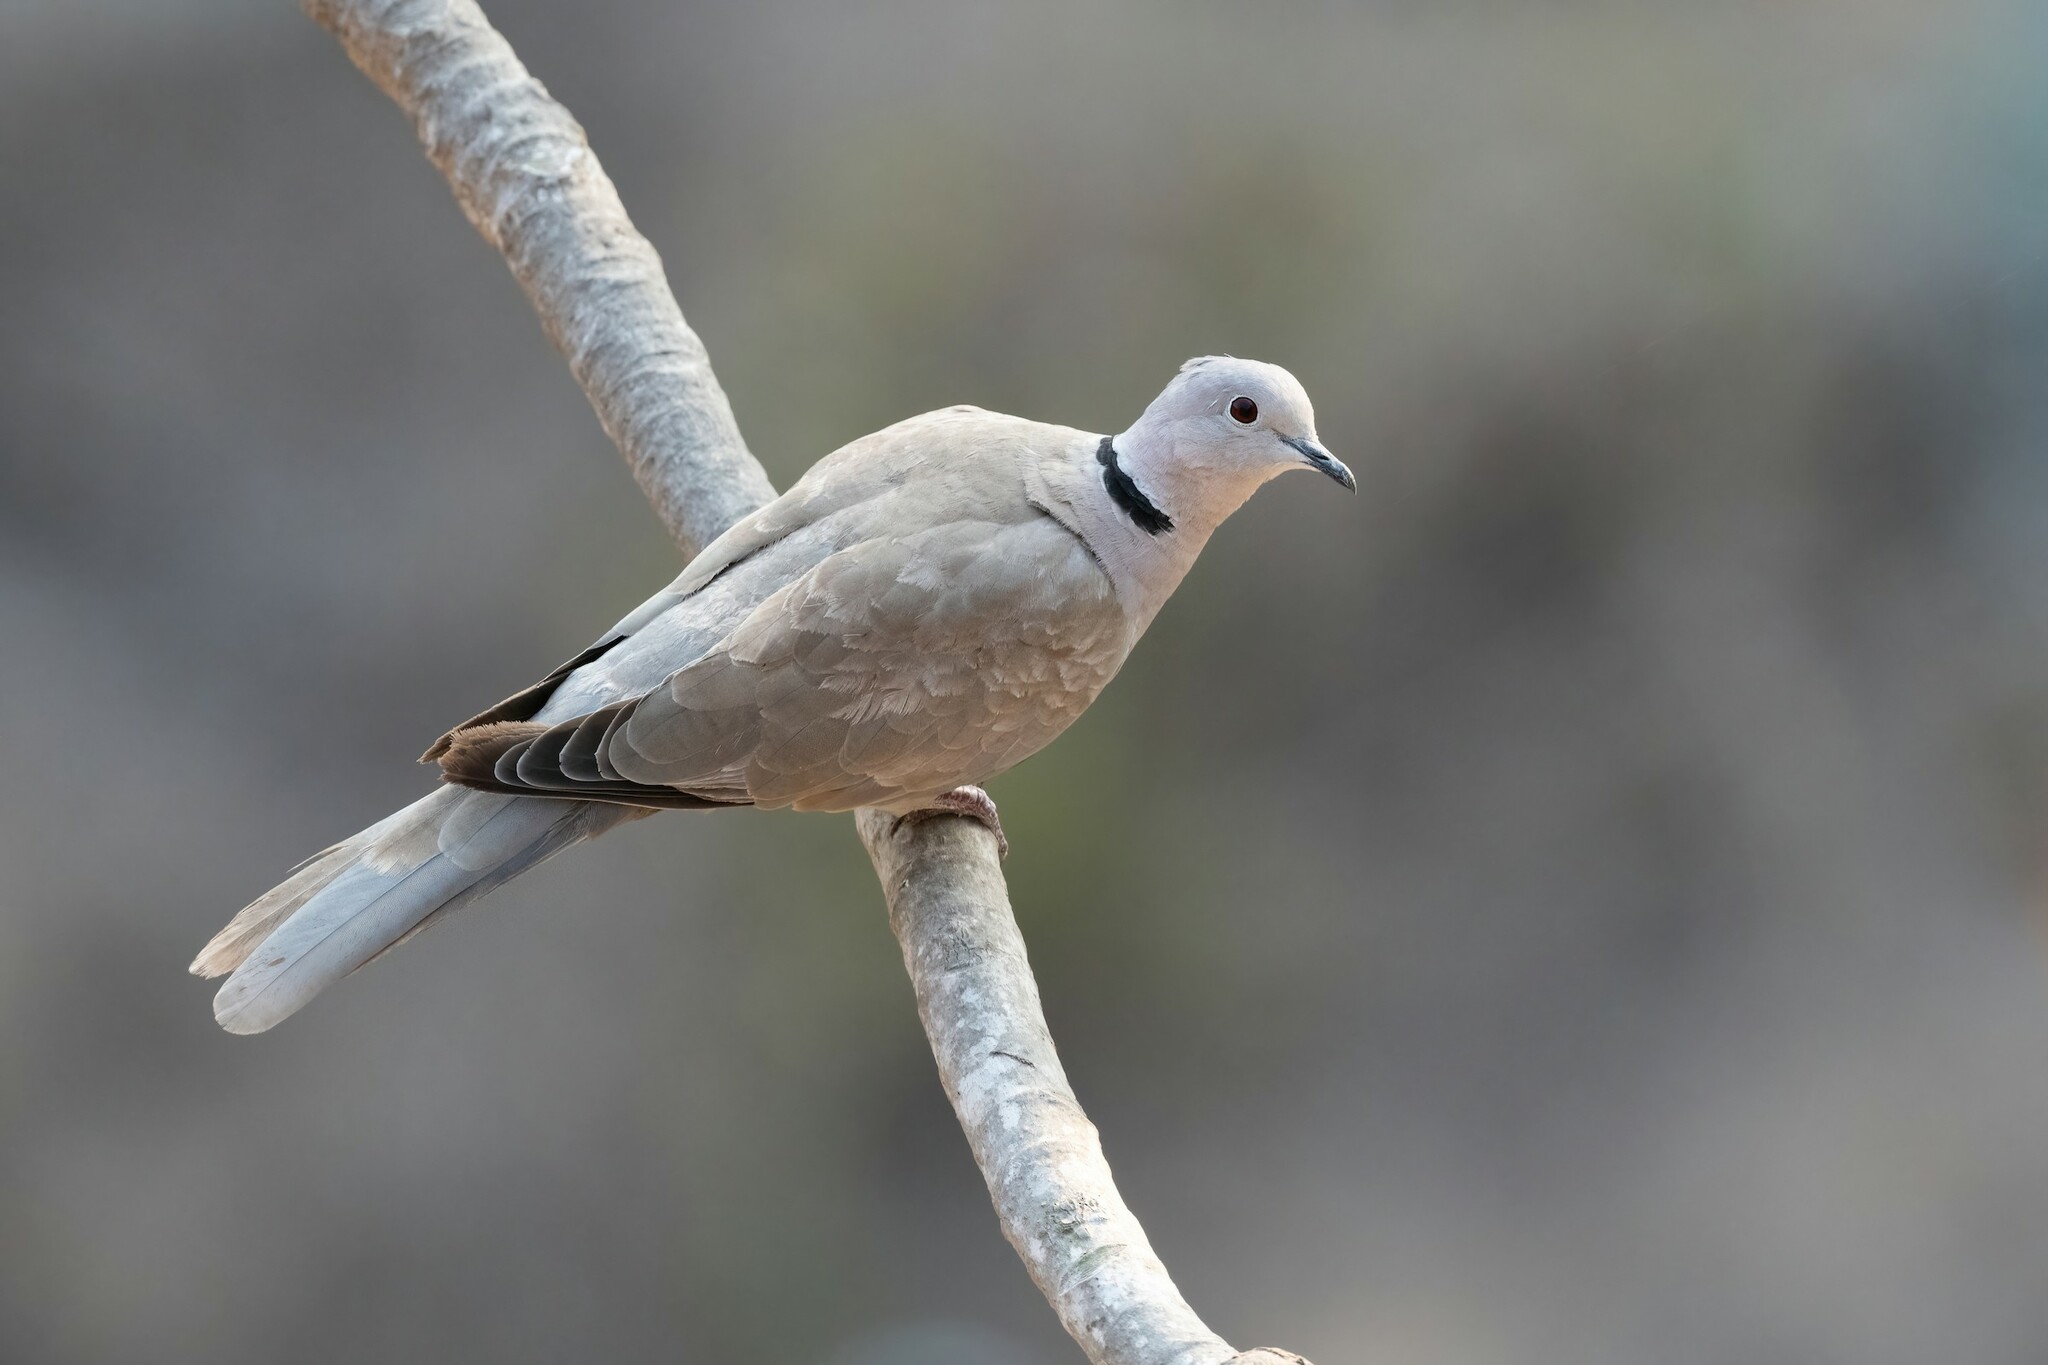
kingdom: Animalia
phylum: Chordata
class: Aves
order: Columbiformes
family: Columbidae
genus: Streptopelia
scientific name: Streptopelia decaocto
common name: Eurasian collared dove
